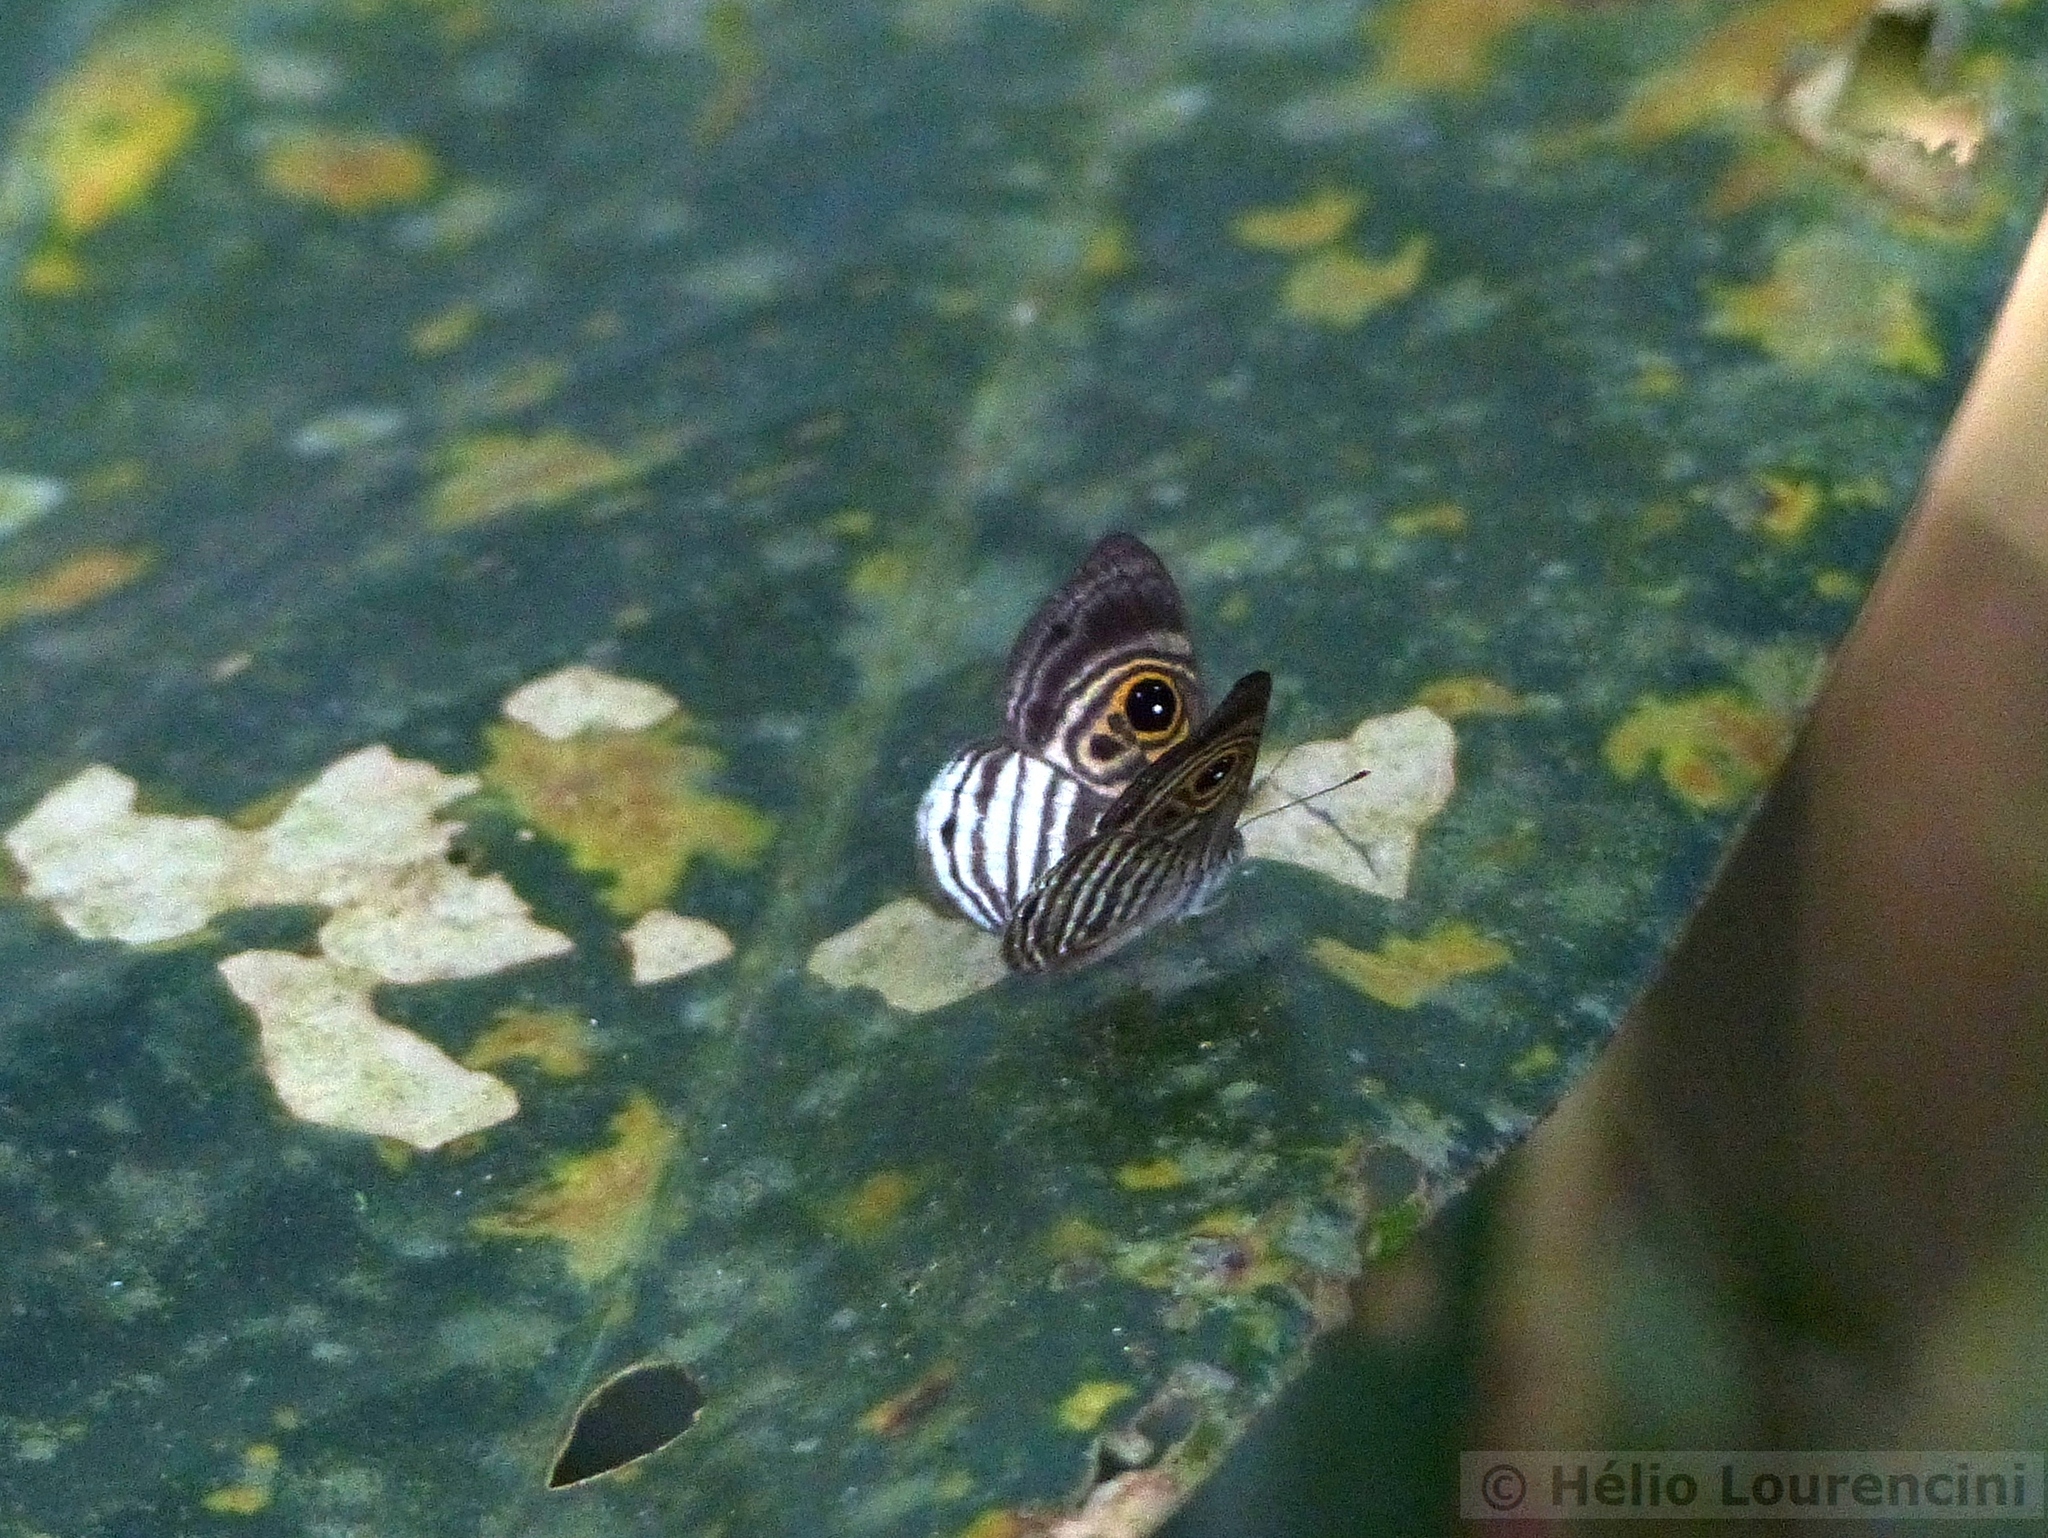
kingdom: Animalia
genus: Mesosemia
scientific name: Mesosemia minos
